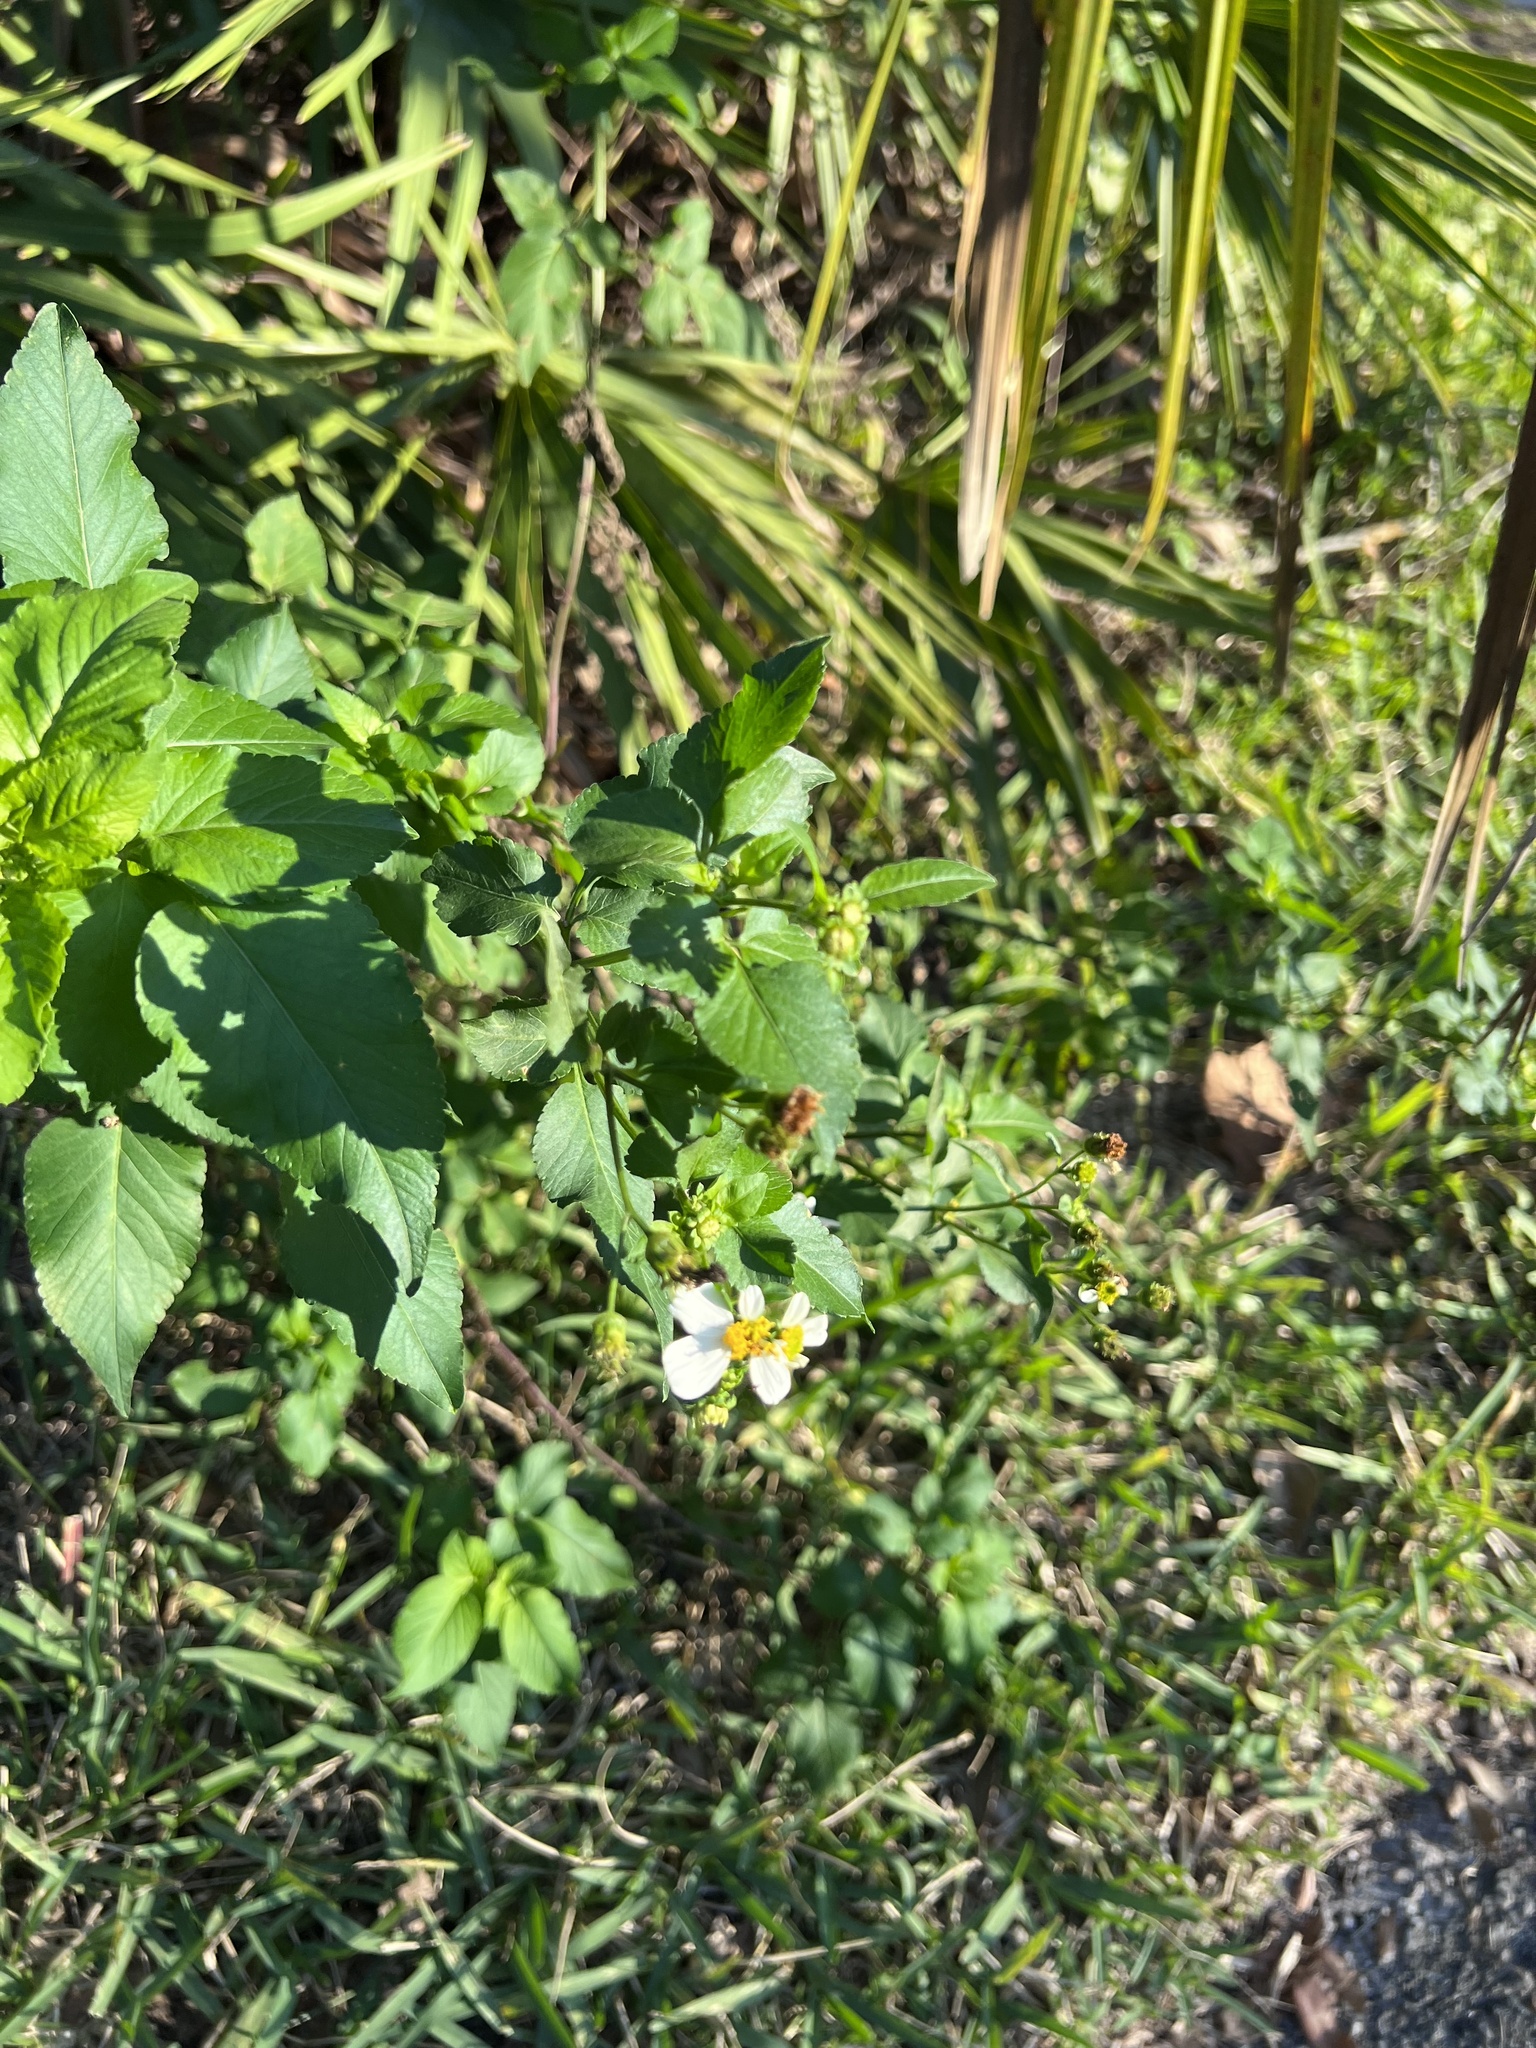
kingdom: Plantae
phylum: Tracheophyta
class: Magnoliopsida
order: Asterales
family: Asteraceae
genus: Bidens
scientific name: Bidens alba
